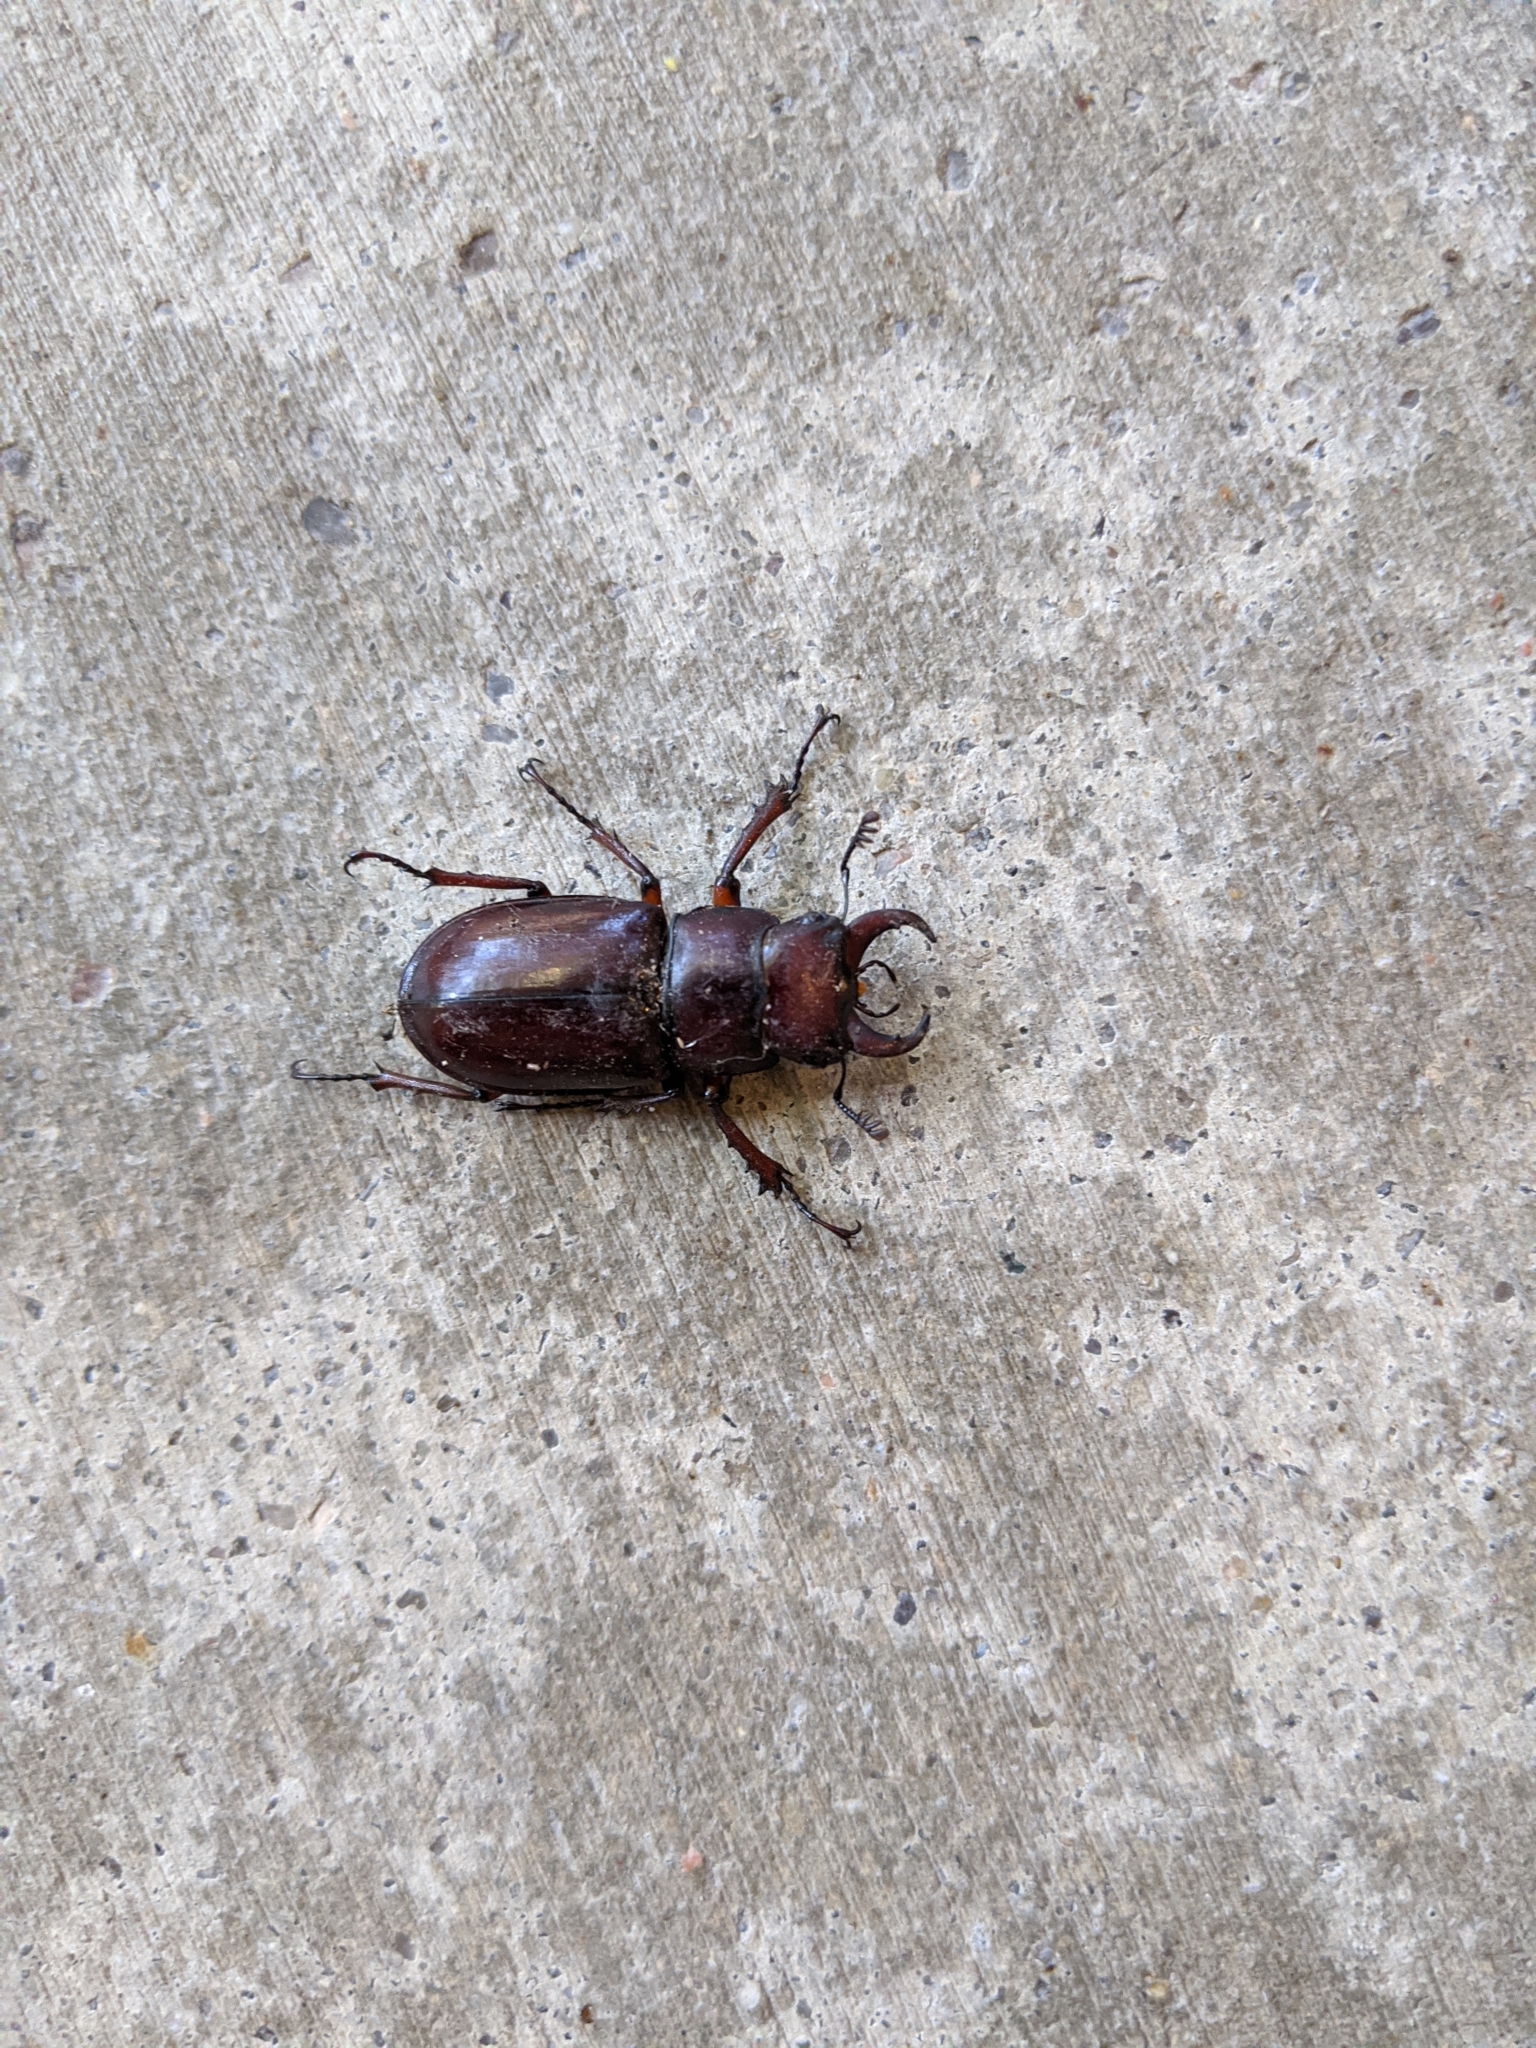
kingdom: Animalia
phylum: Arthropoda
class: Insecta
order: Coleoptera
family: Lucanidae
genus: Lucanus
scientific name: Lucanus capreolus
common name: Stag beetle
